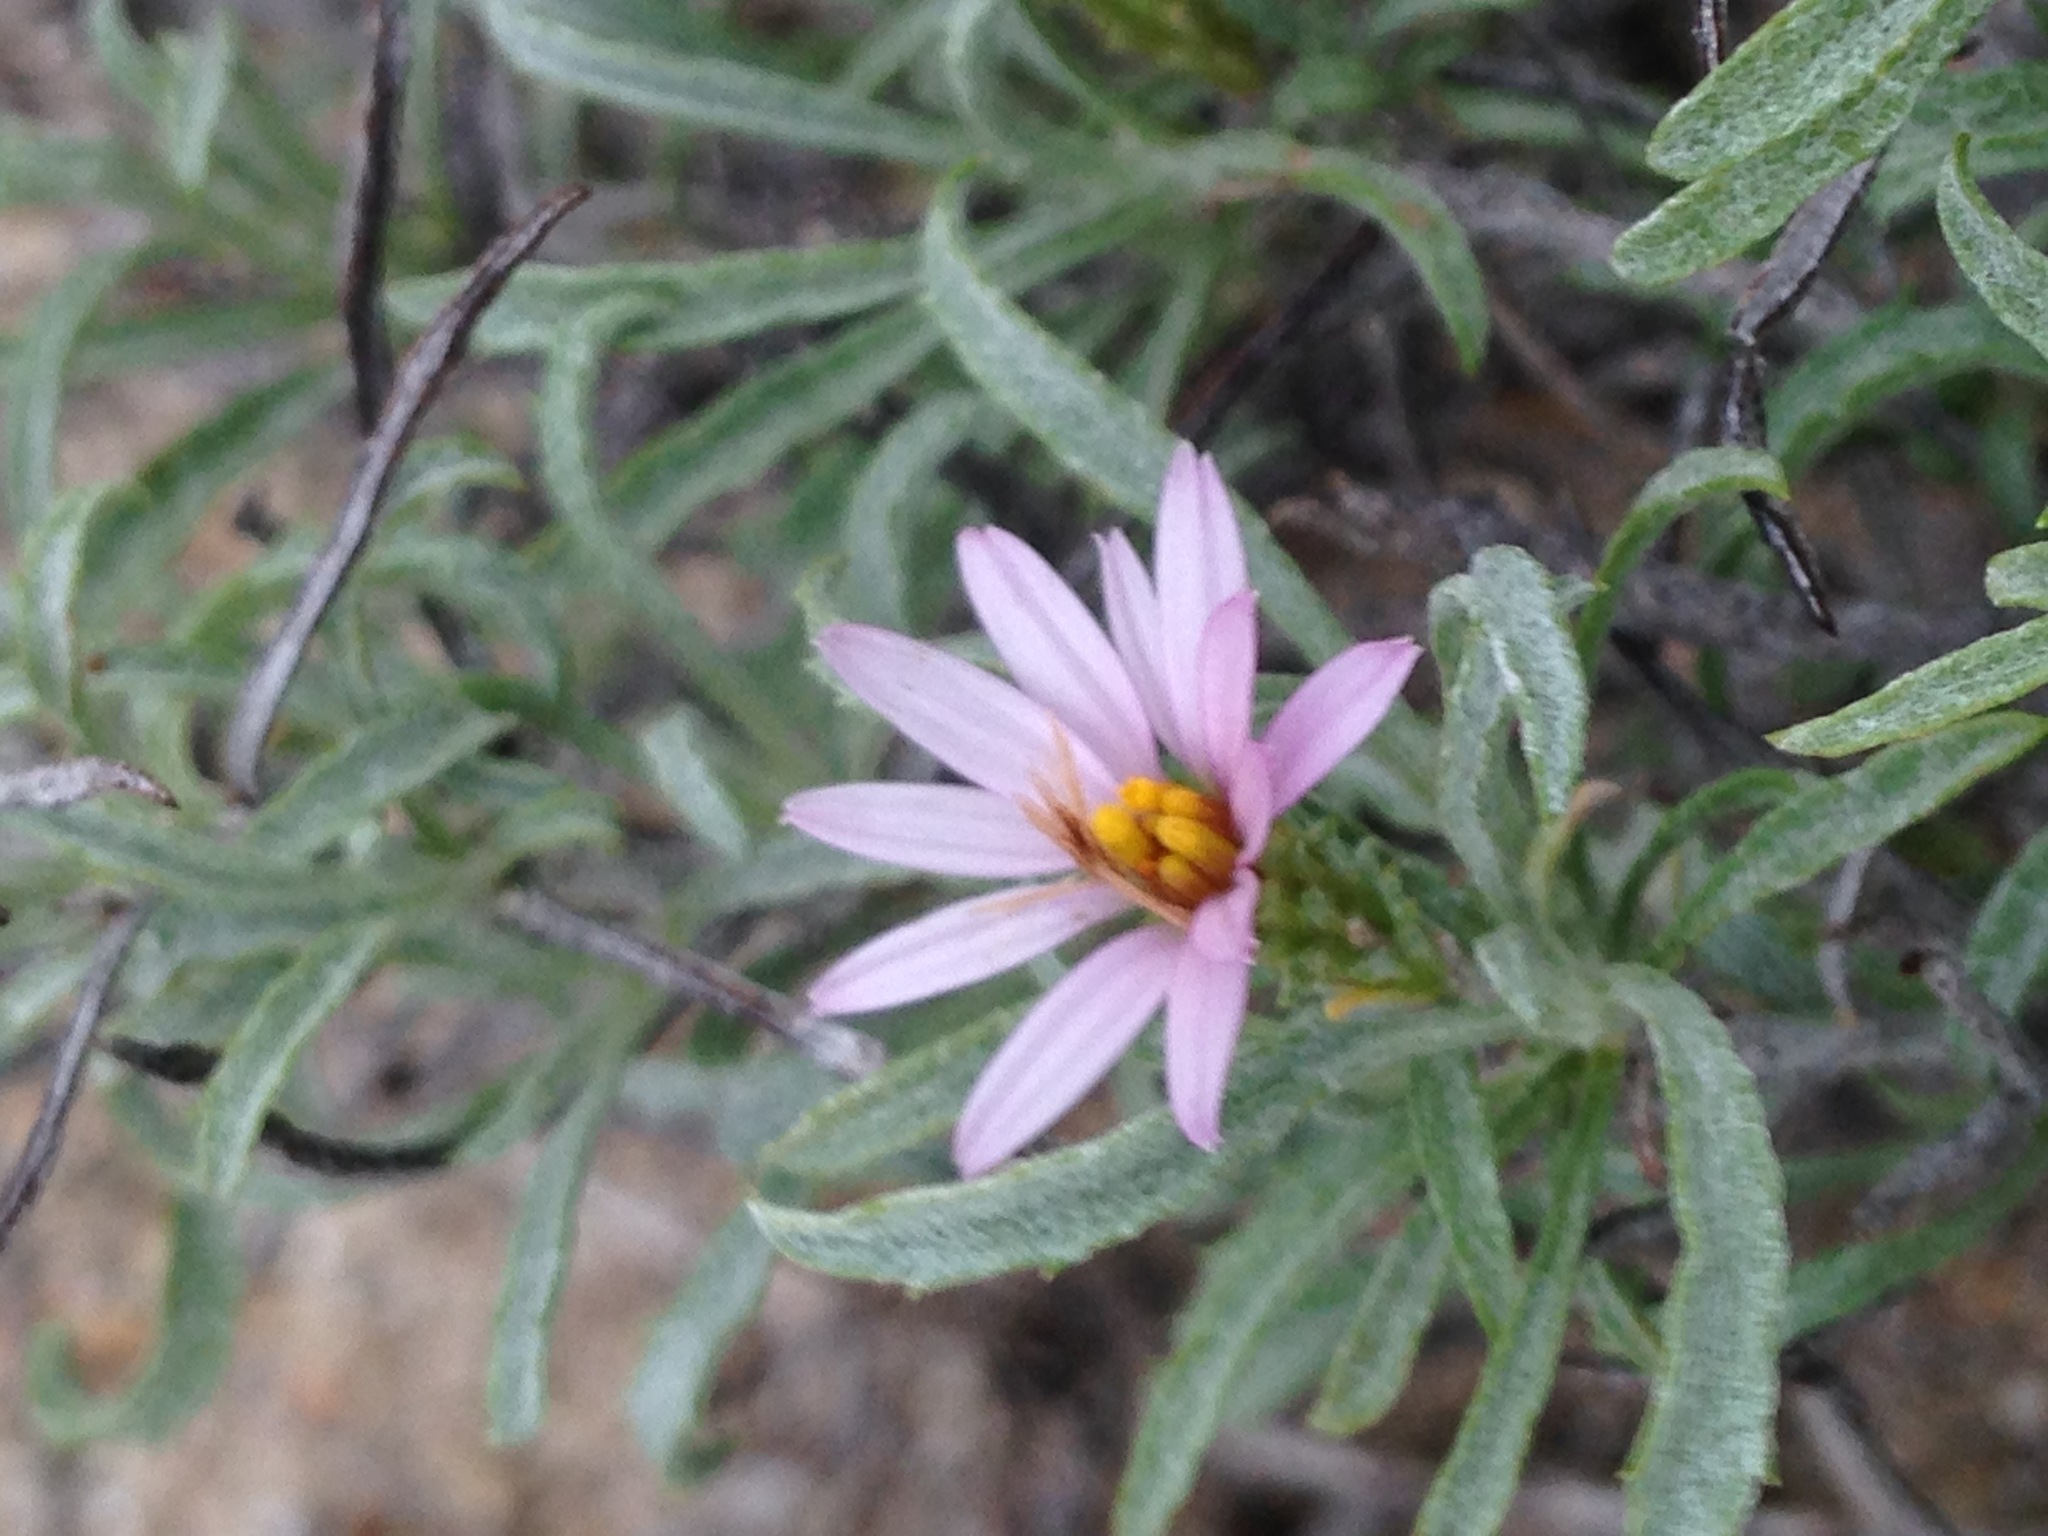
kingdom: Plantae
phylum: Tracheophyta
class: Magnoliopsida
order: Asterales
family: Asteraceae
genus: Corethrogyne
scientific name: Corethrogyne filaginifolia
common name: Sand-aster
